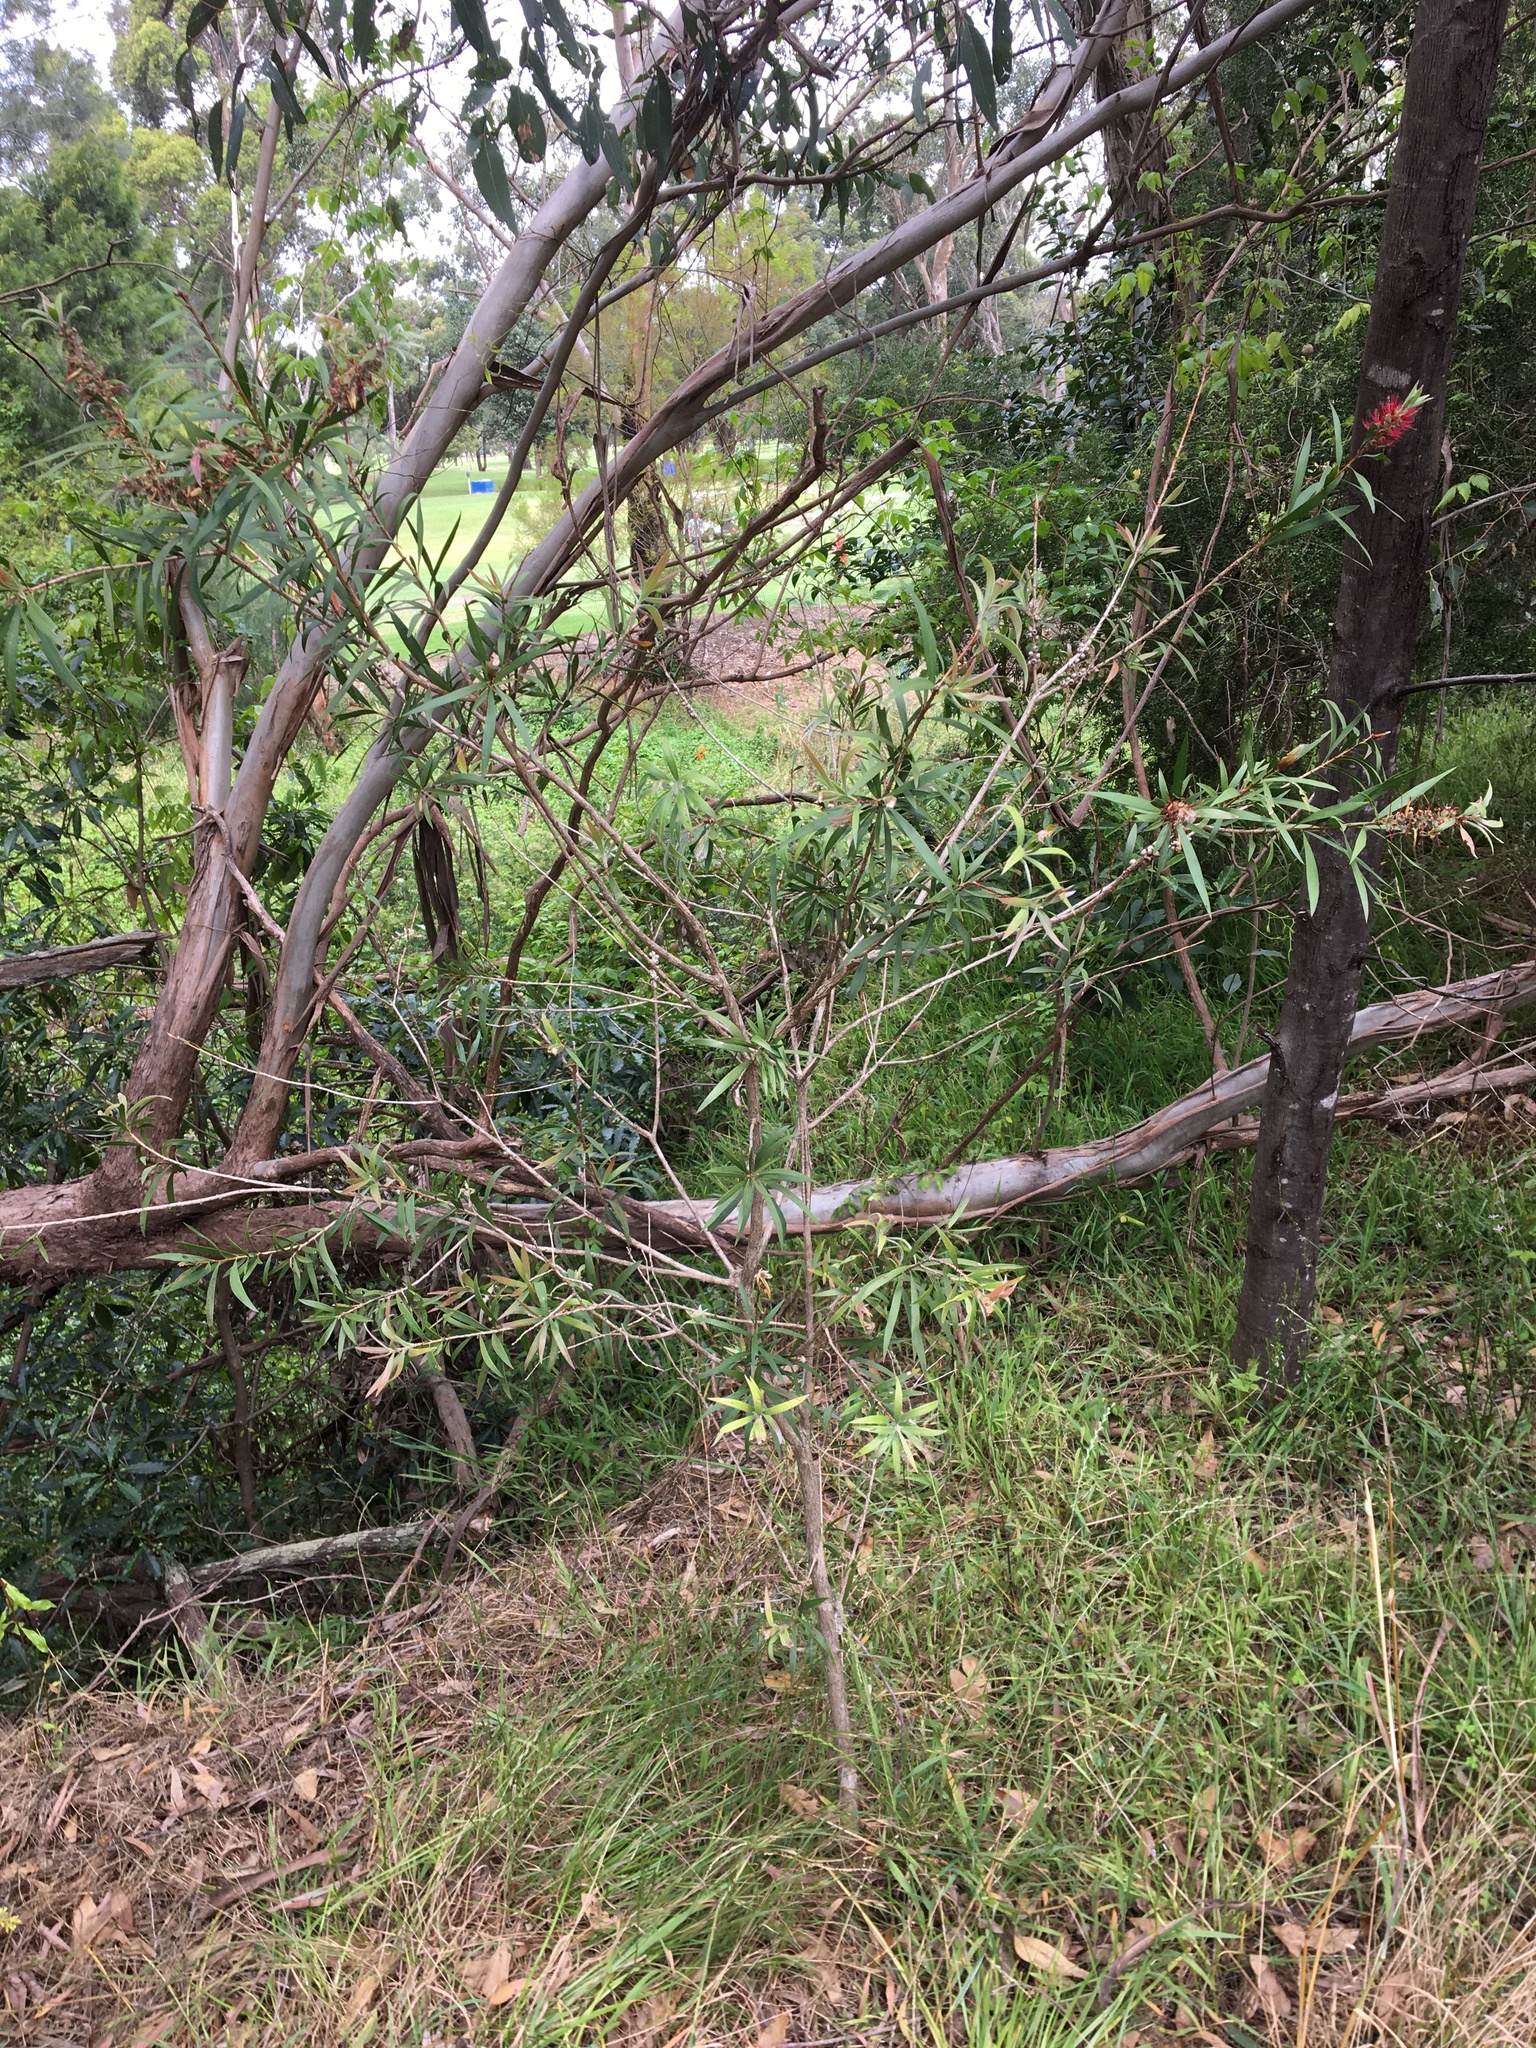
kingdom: Plantae
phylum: Tracheophyta
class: Magnoliopsida
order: Myrtales
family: Myrtaceae
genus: Melaleuca
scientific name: Melaleuca linearifolia
